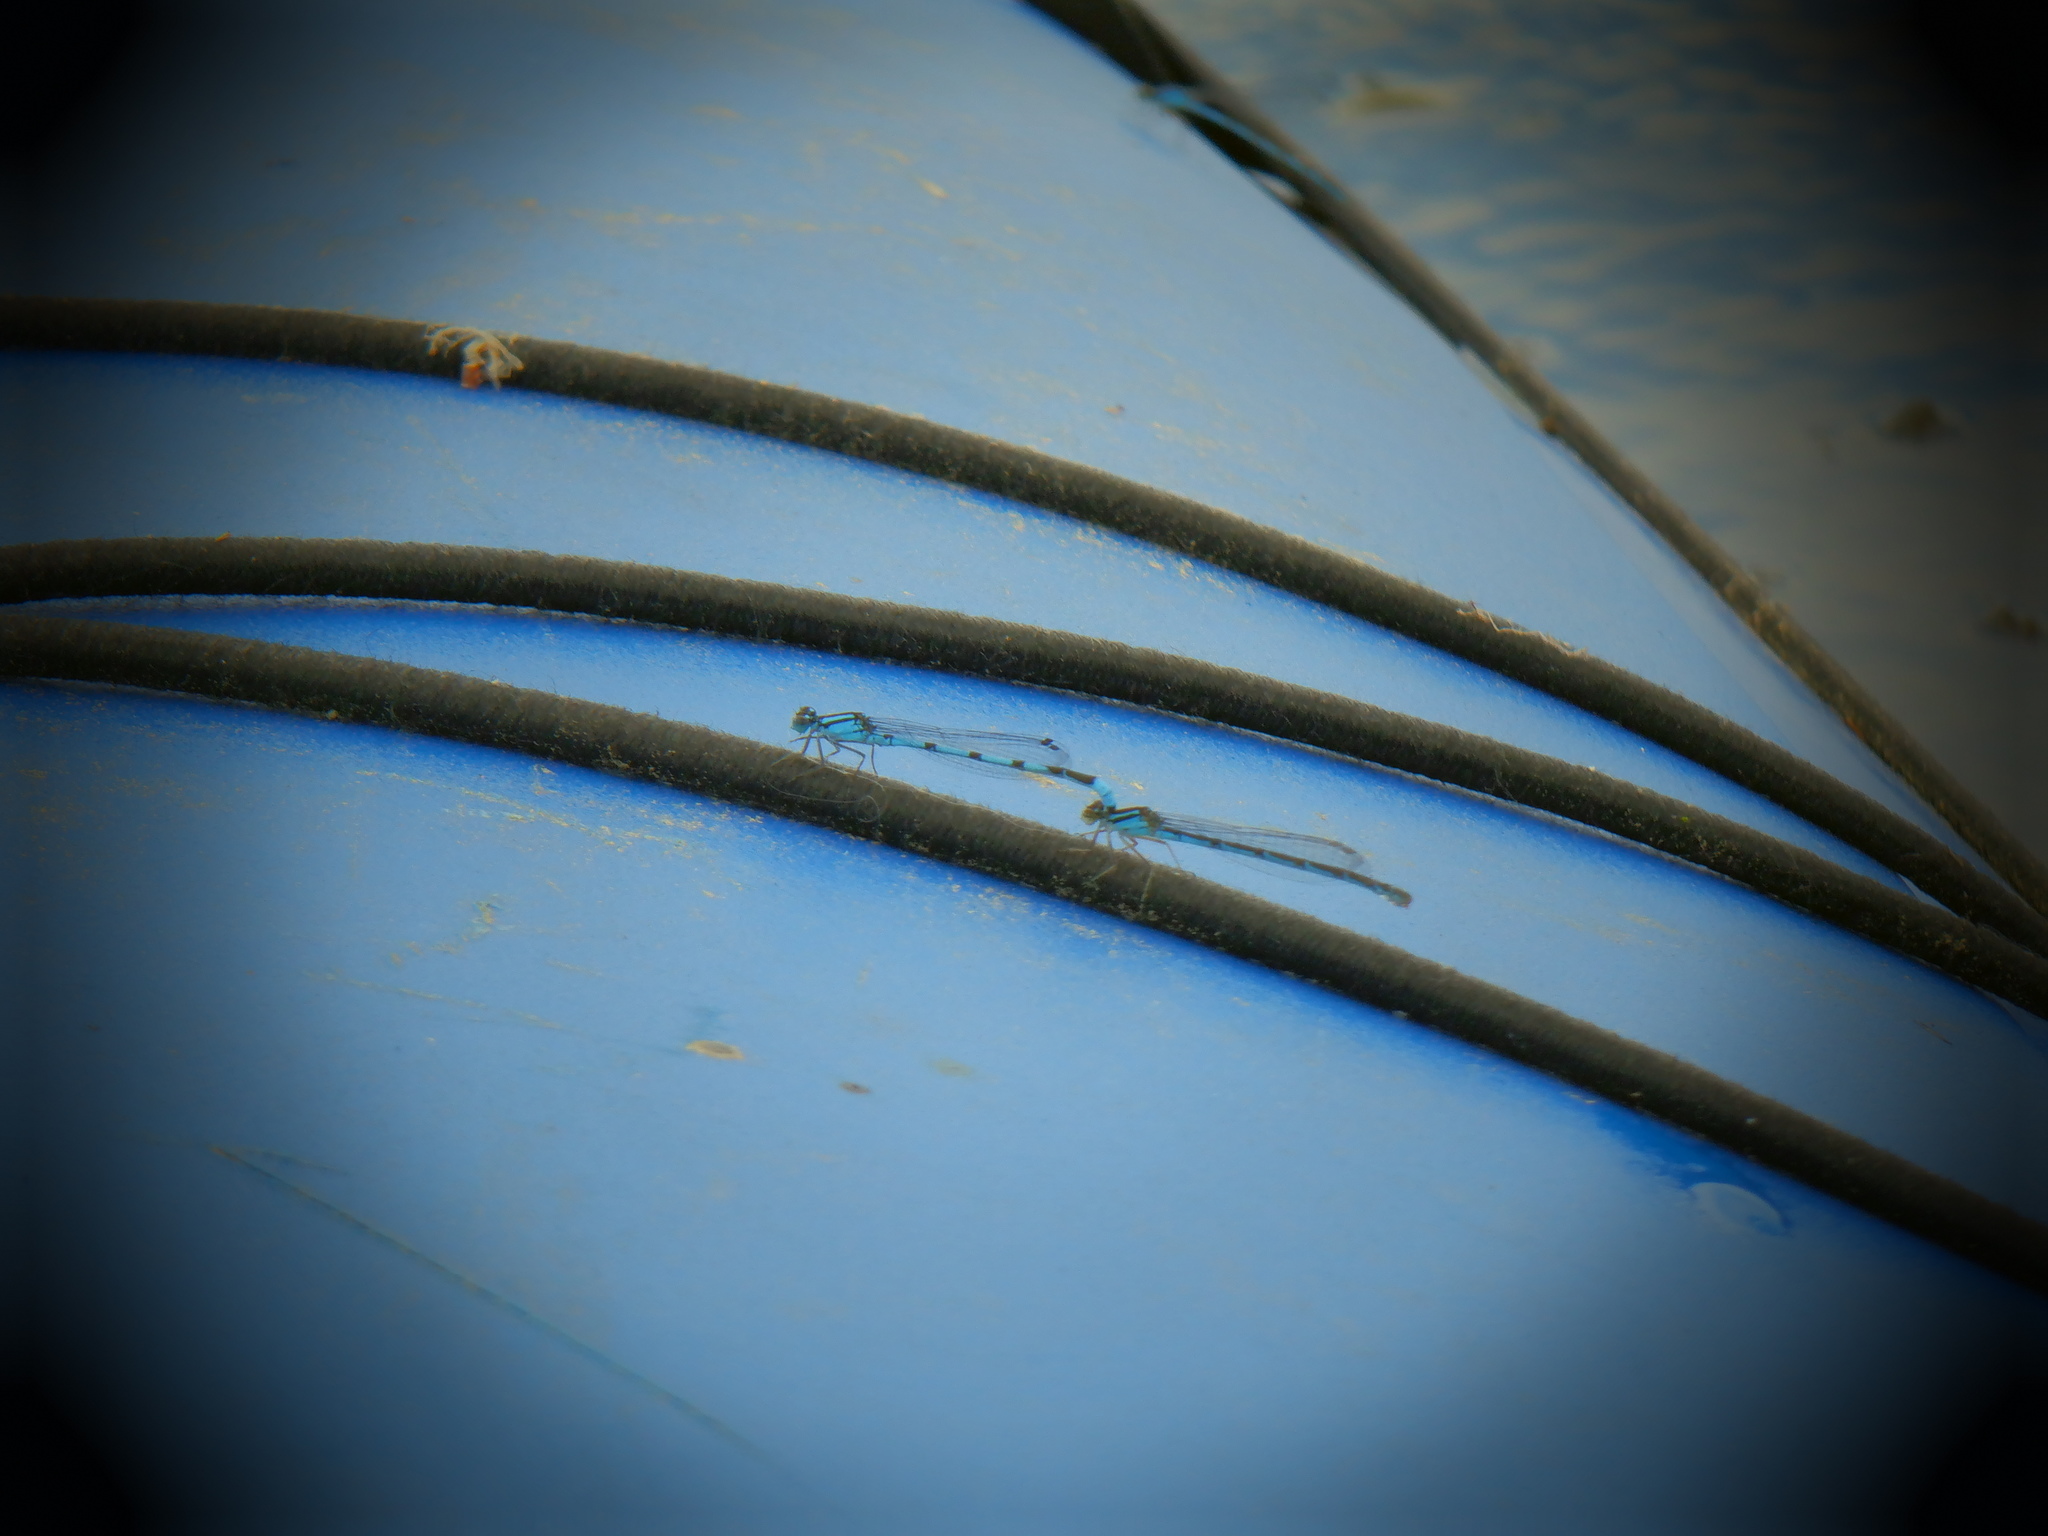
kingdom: Animalia
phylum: Arthropoda
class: Insecta
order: Odonata
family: Coenagrionidae
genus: Enallagma
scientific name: Enallagma
